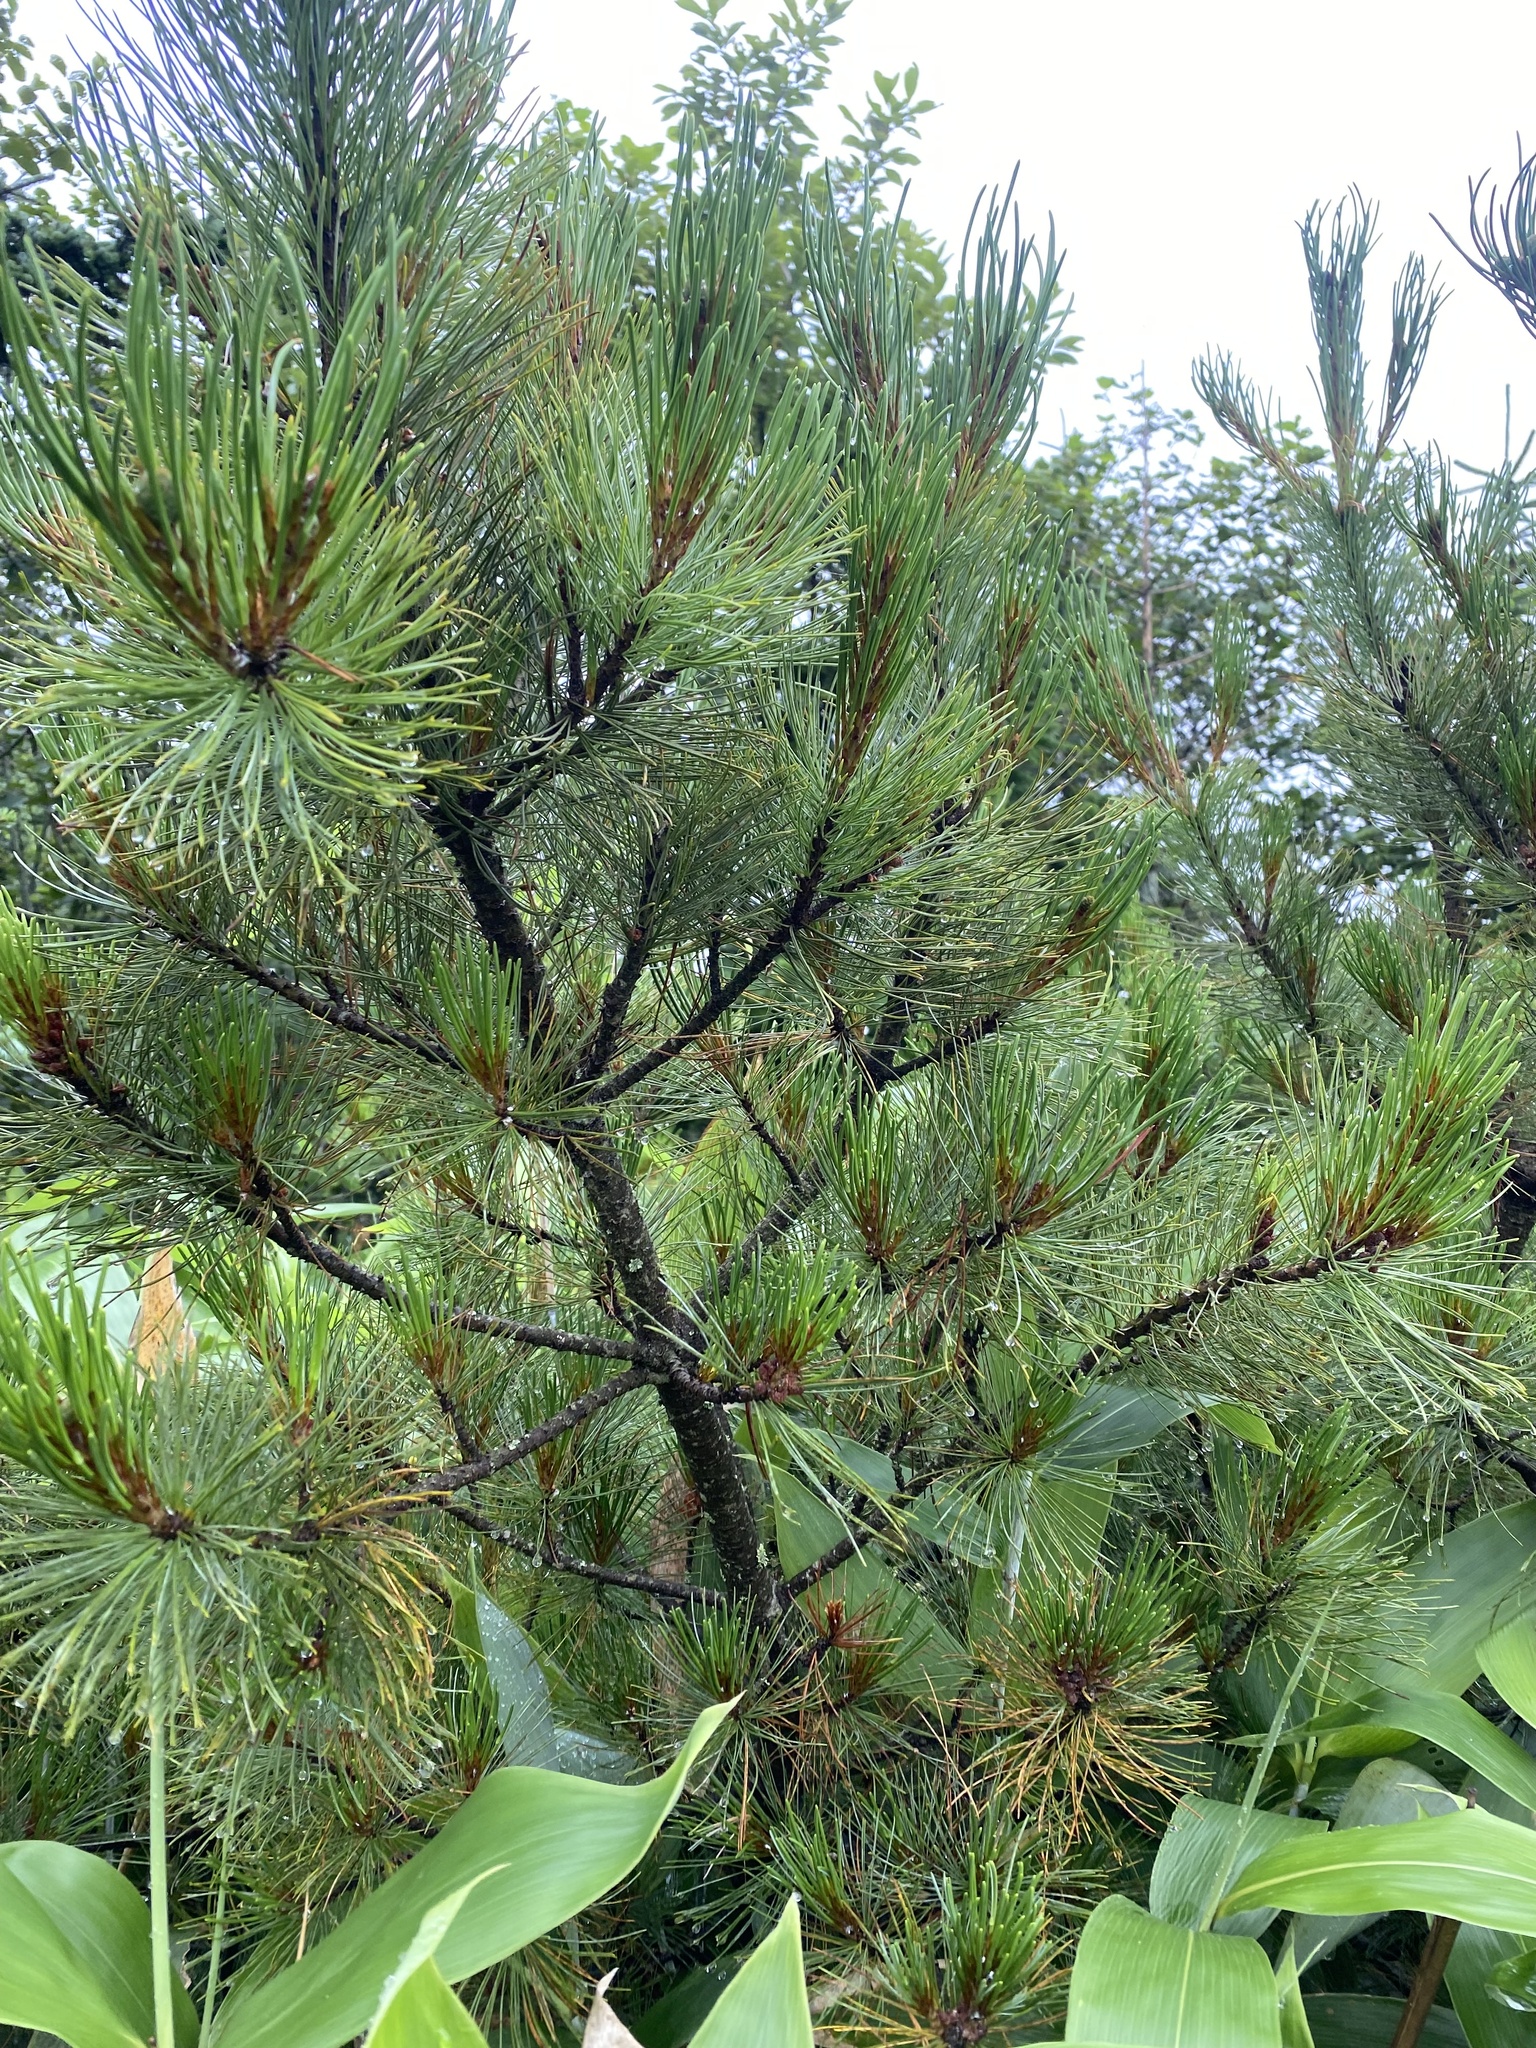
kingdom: Plantae
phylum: Tracheophyta
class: Pinopsida
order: Pinales
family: Pinaceae
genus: Pinus
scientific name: Pinus pumila
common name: Dwarf siberian pine
